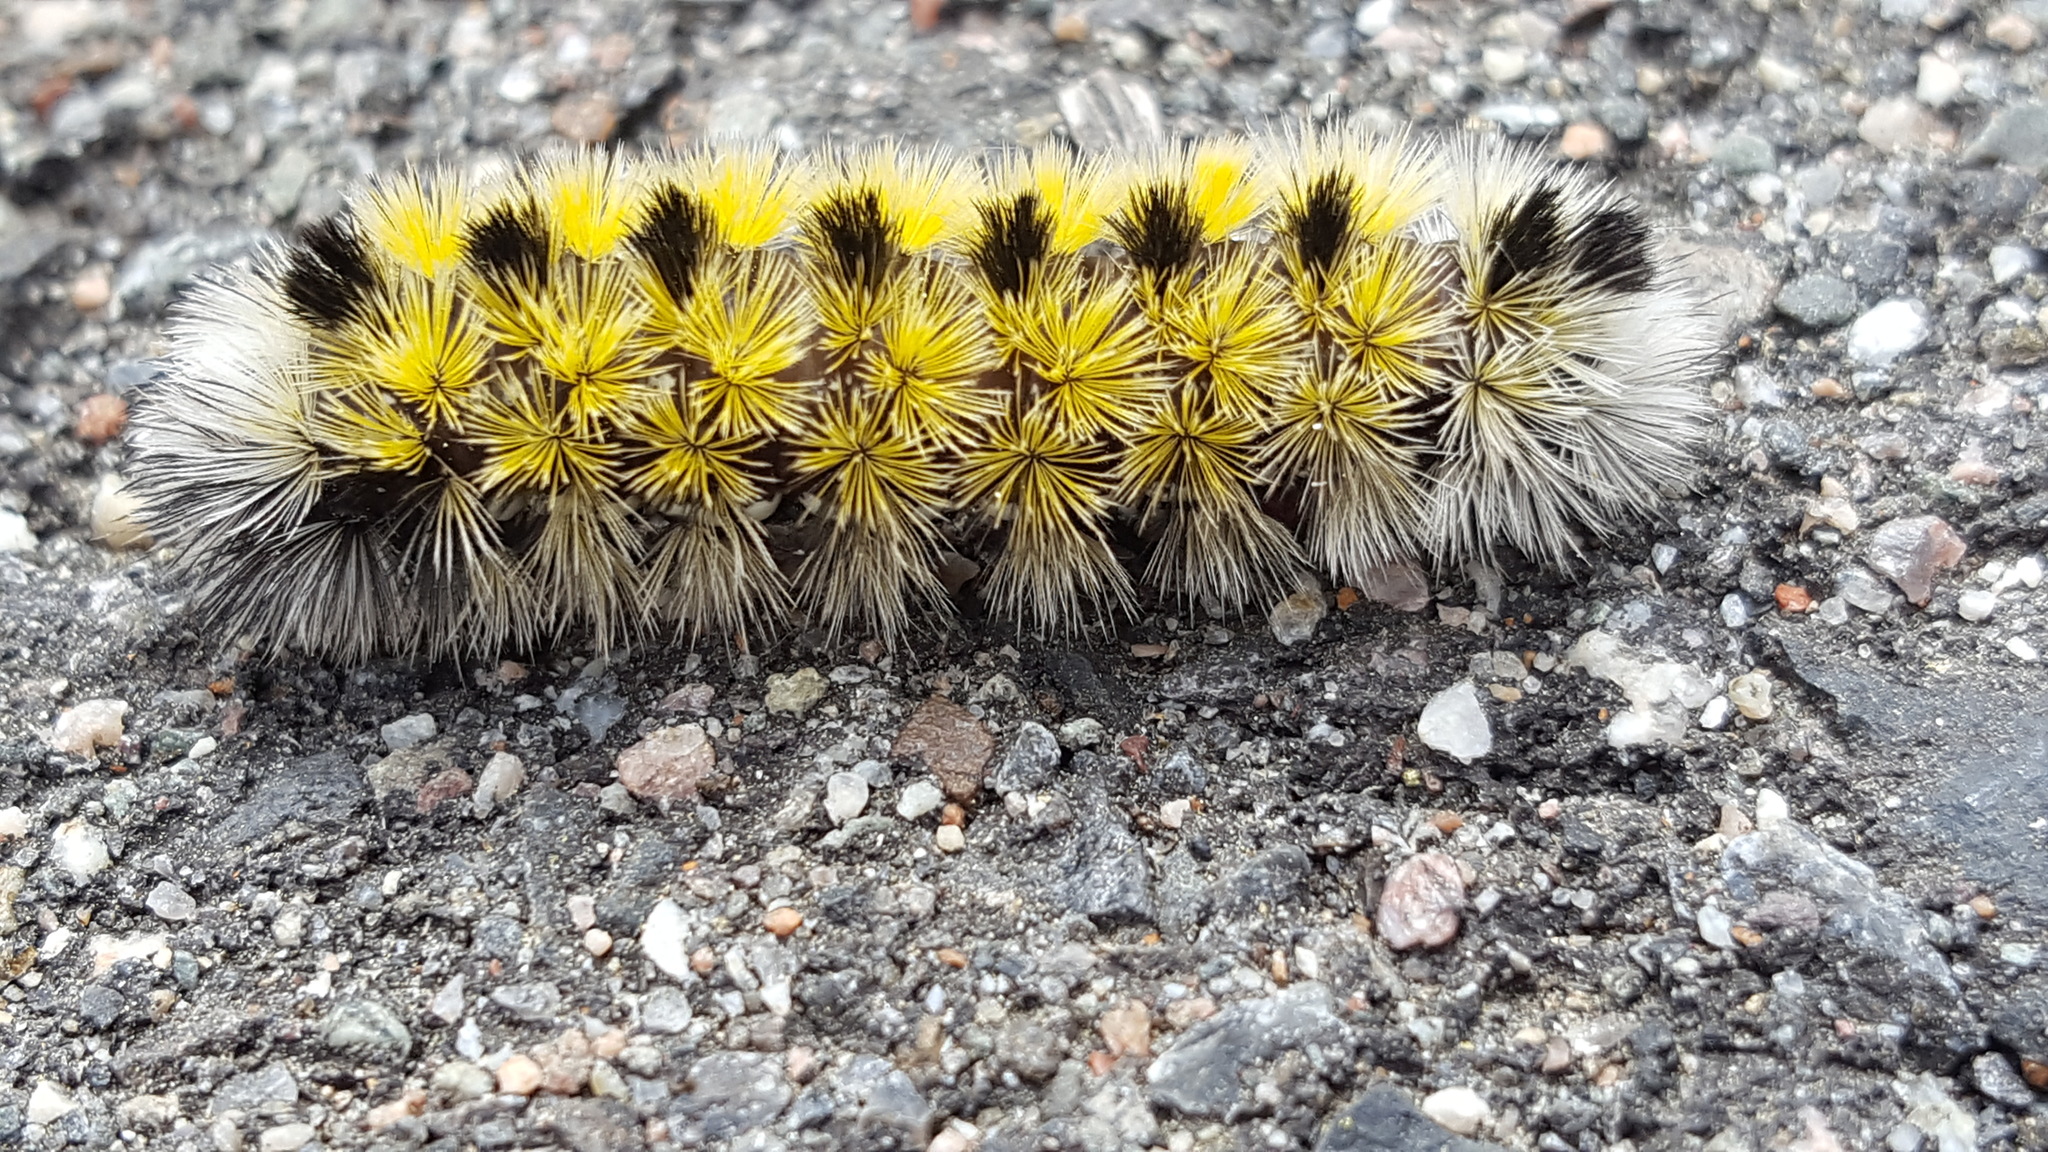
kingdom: Animalia
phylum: Arthropoda
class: Insecta
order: Lepidoptera
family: Erebidae
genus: Ctenucha
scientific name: Ctenucha virginica
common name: Virginia ctenucha moth
